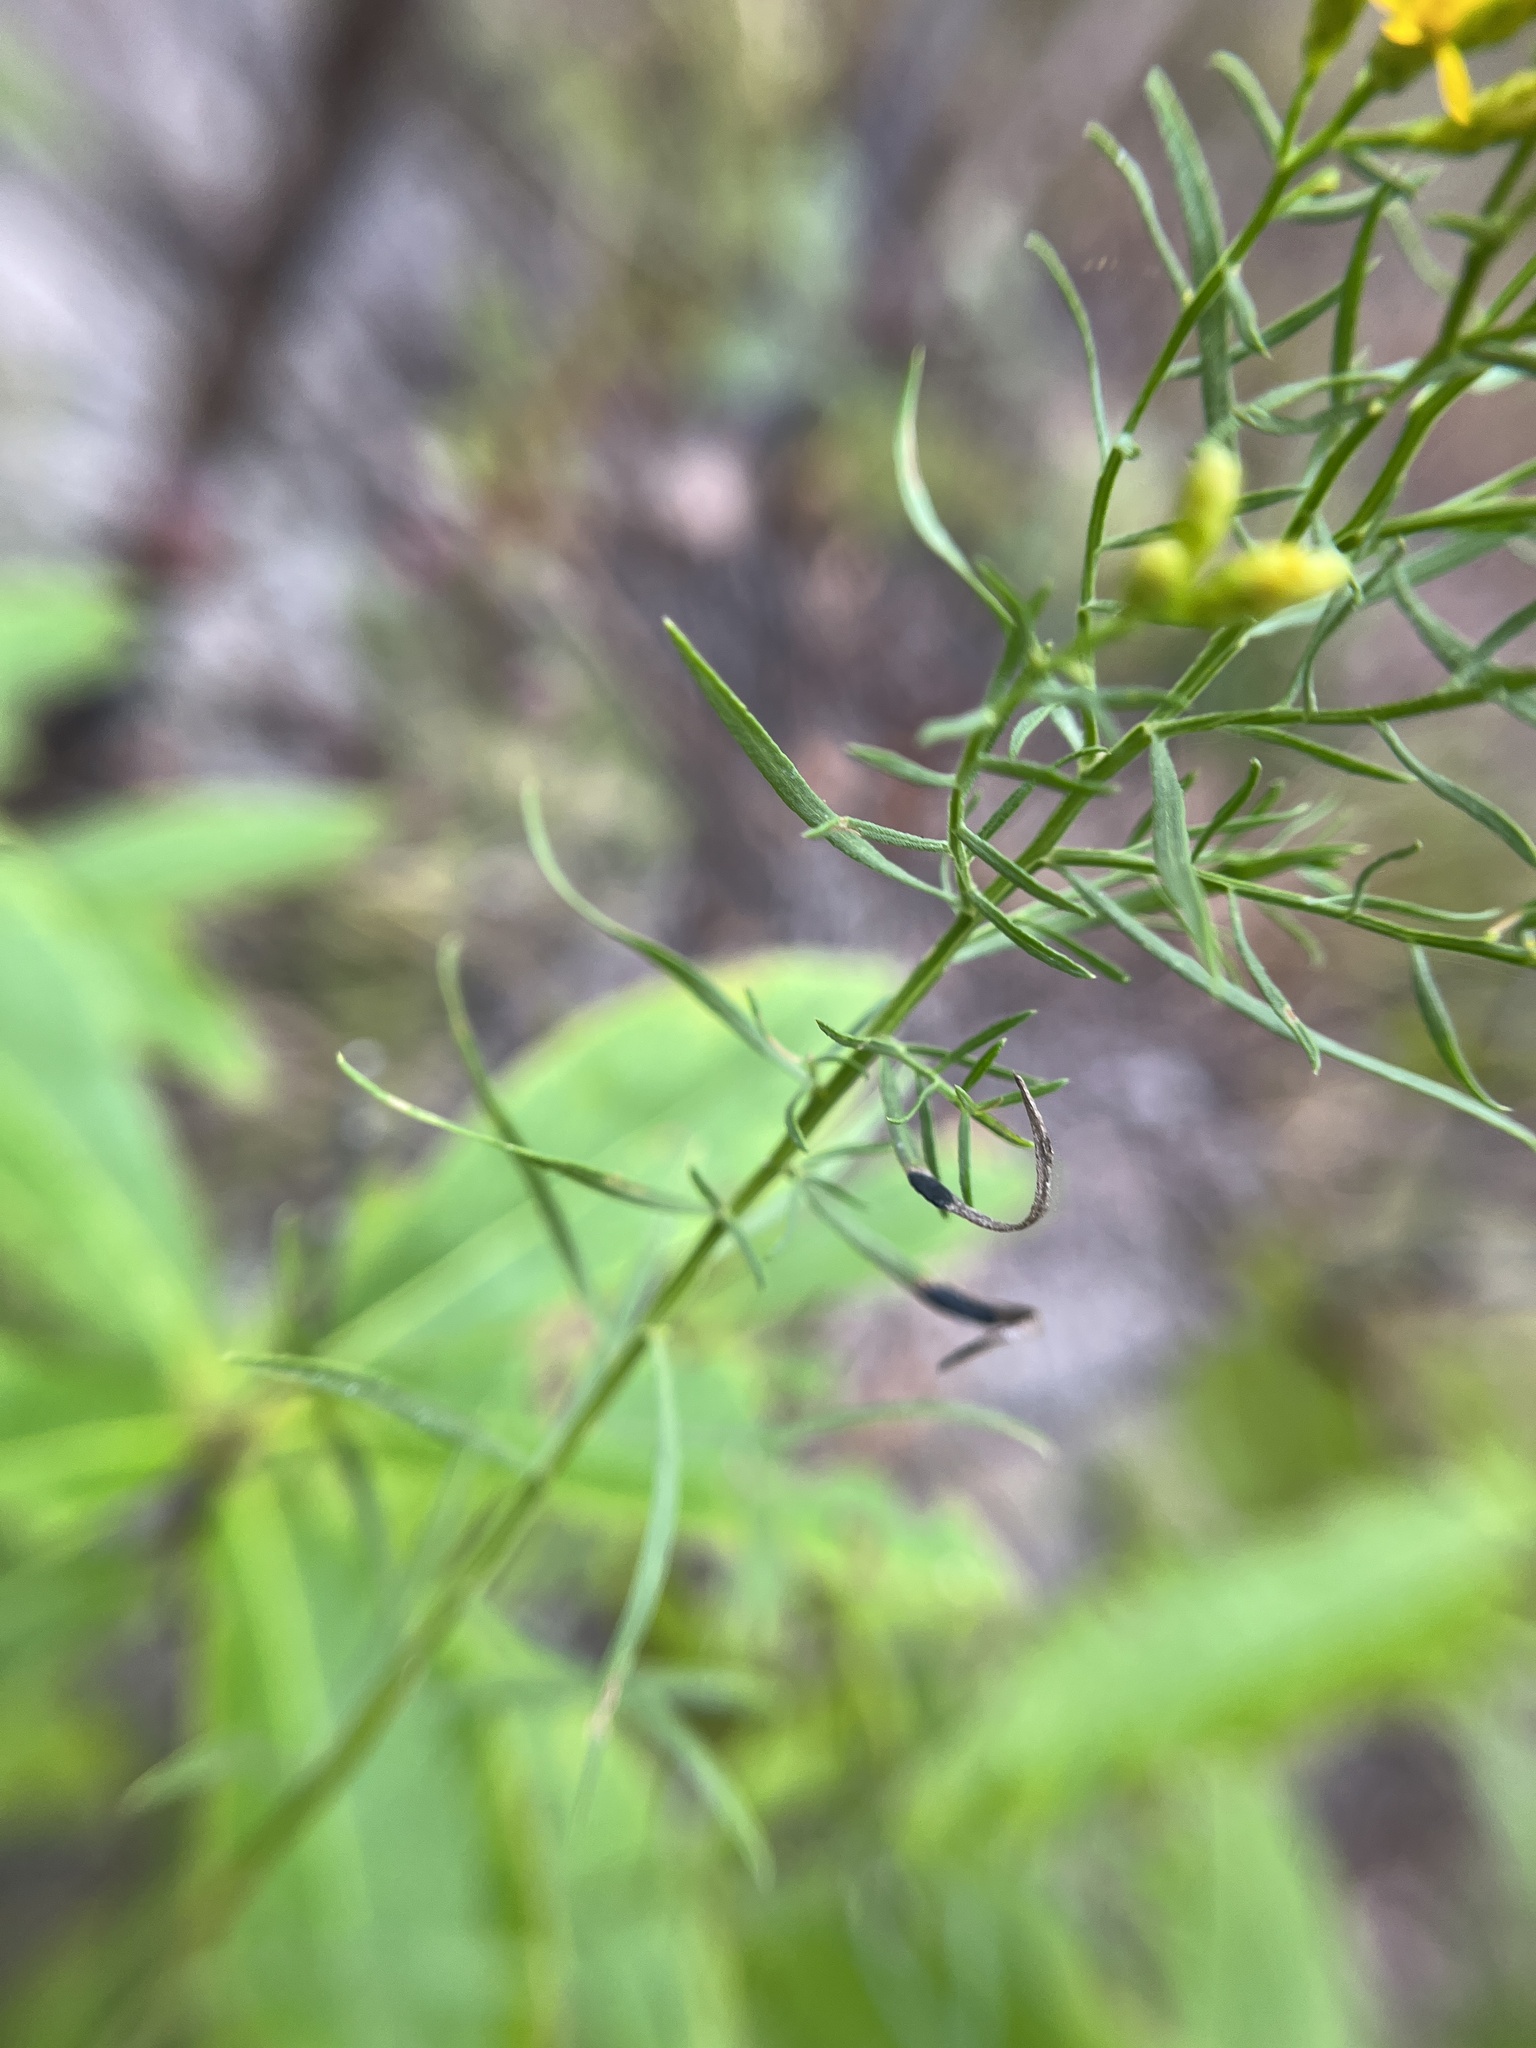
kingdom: Animalia
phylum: Arthropoda
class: Insecta
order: Diptera
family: Cecidomyiidae
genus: Asteromyia
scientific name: Asteromyia euthamiae
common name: Euthamia leaf gall midge
